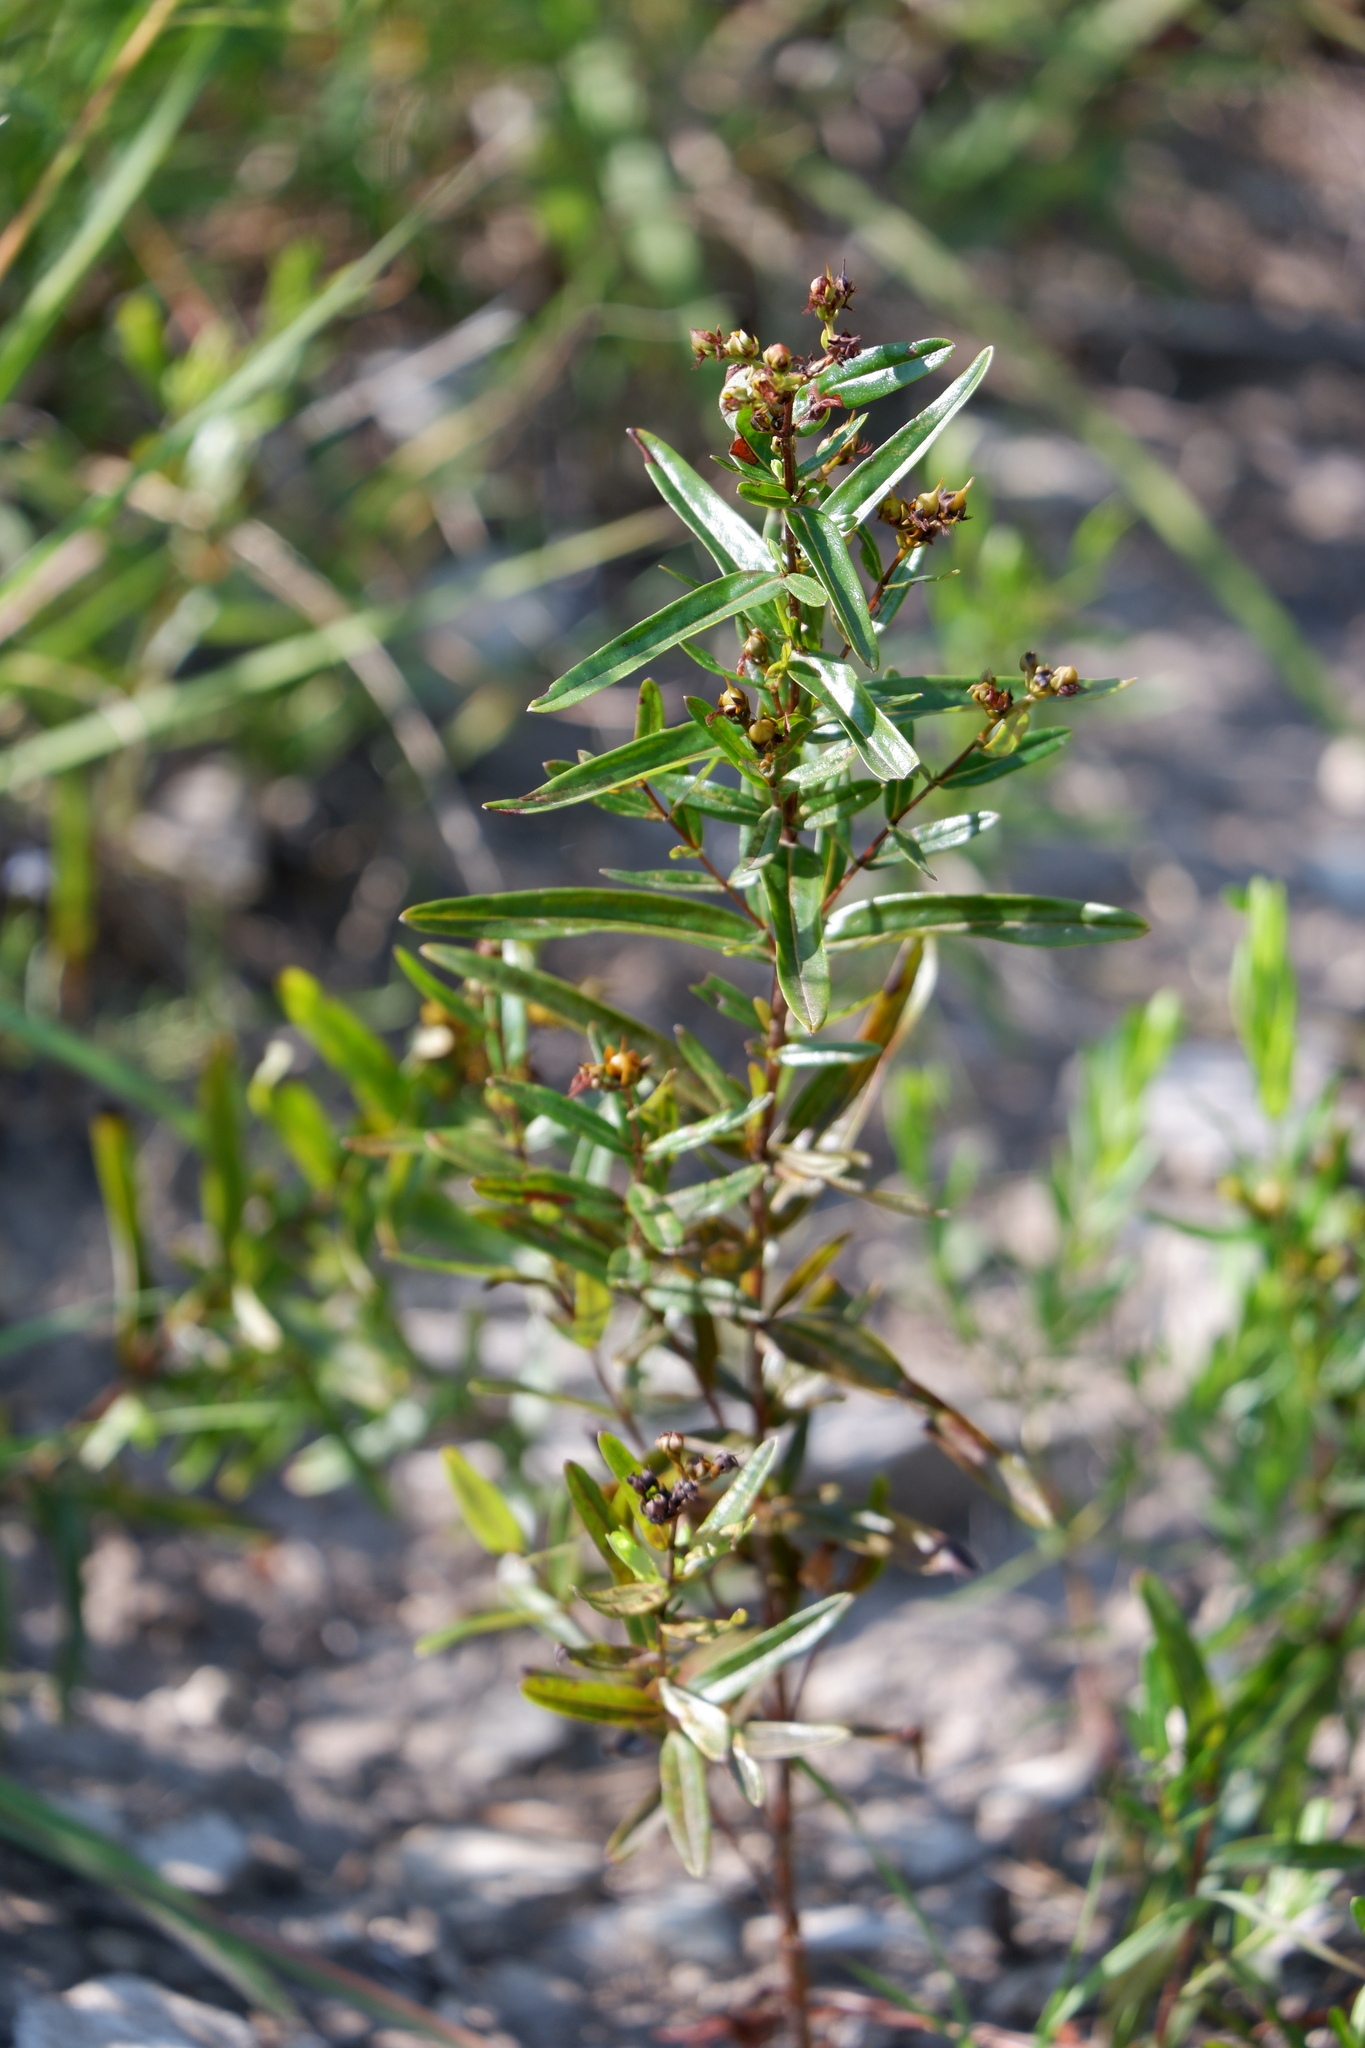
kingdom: Plantae
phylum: Tracheophyta
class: Magnoliopsida
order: Malpighiales
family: Hypericaceae
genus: Hypericum
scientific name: Hypericum sphaerocarpum
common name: Round-fruited st. john's-wort
